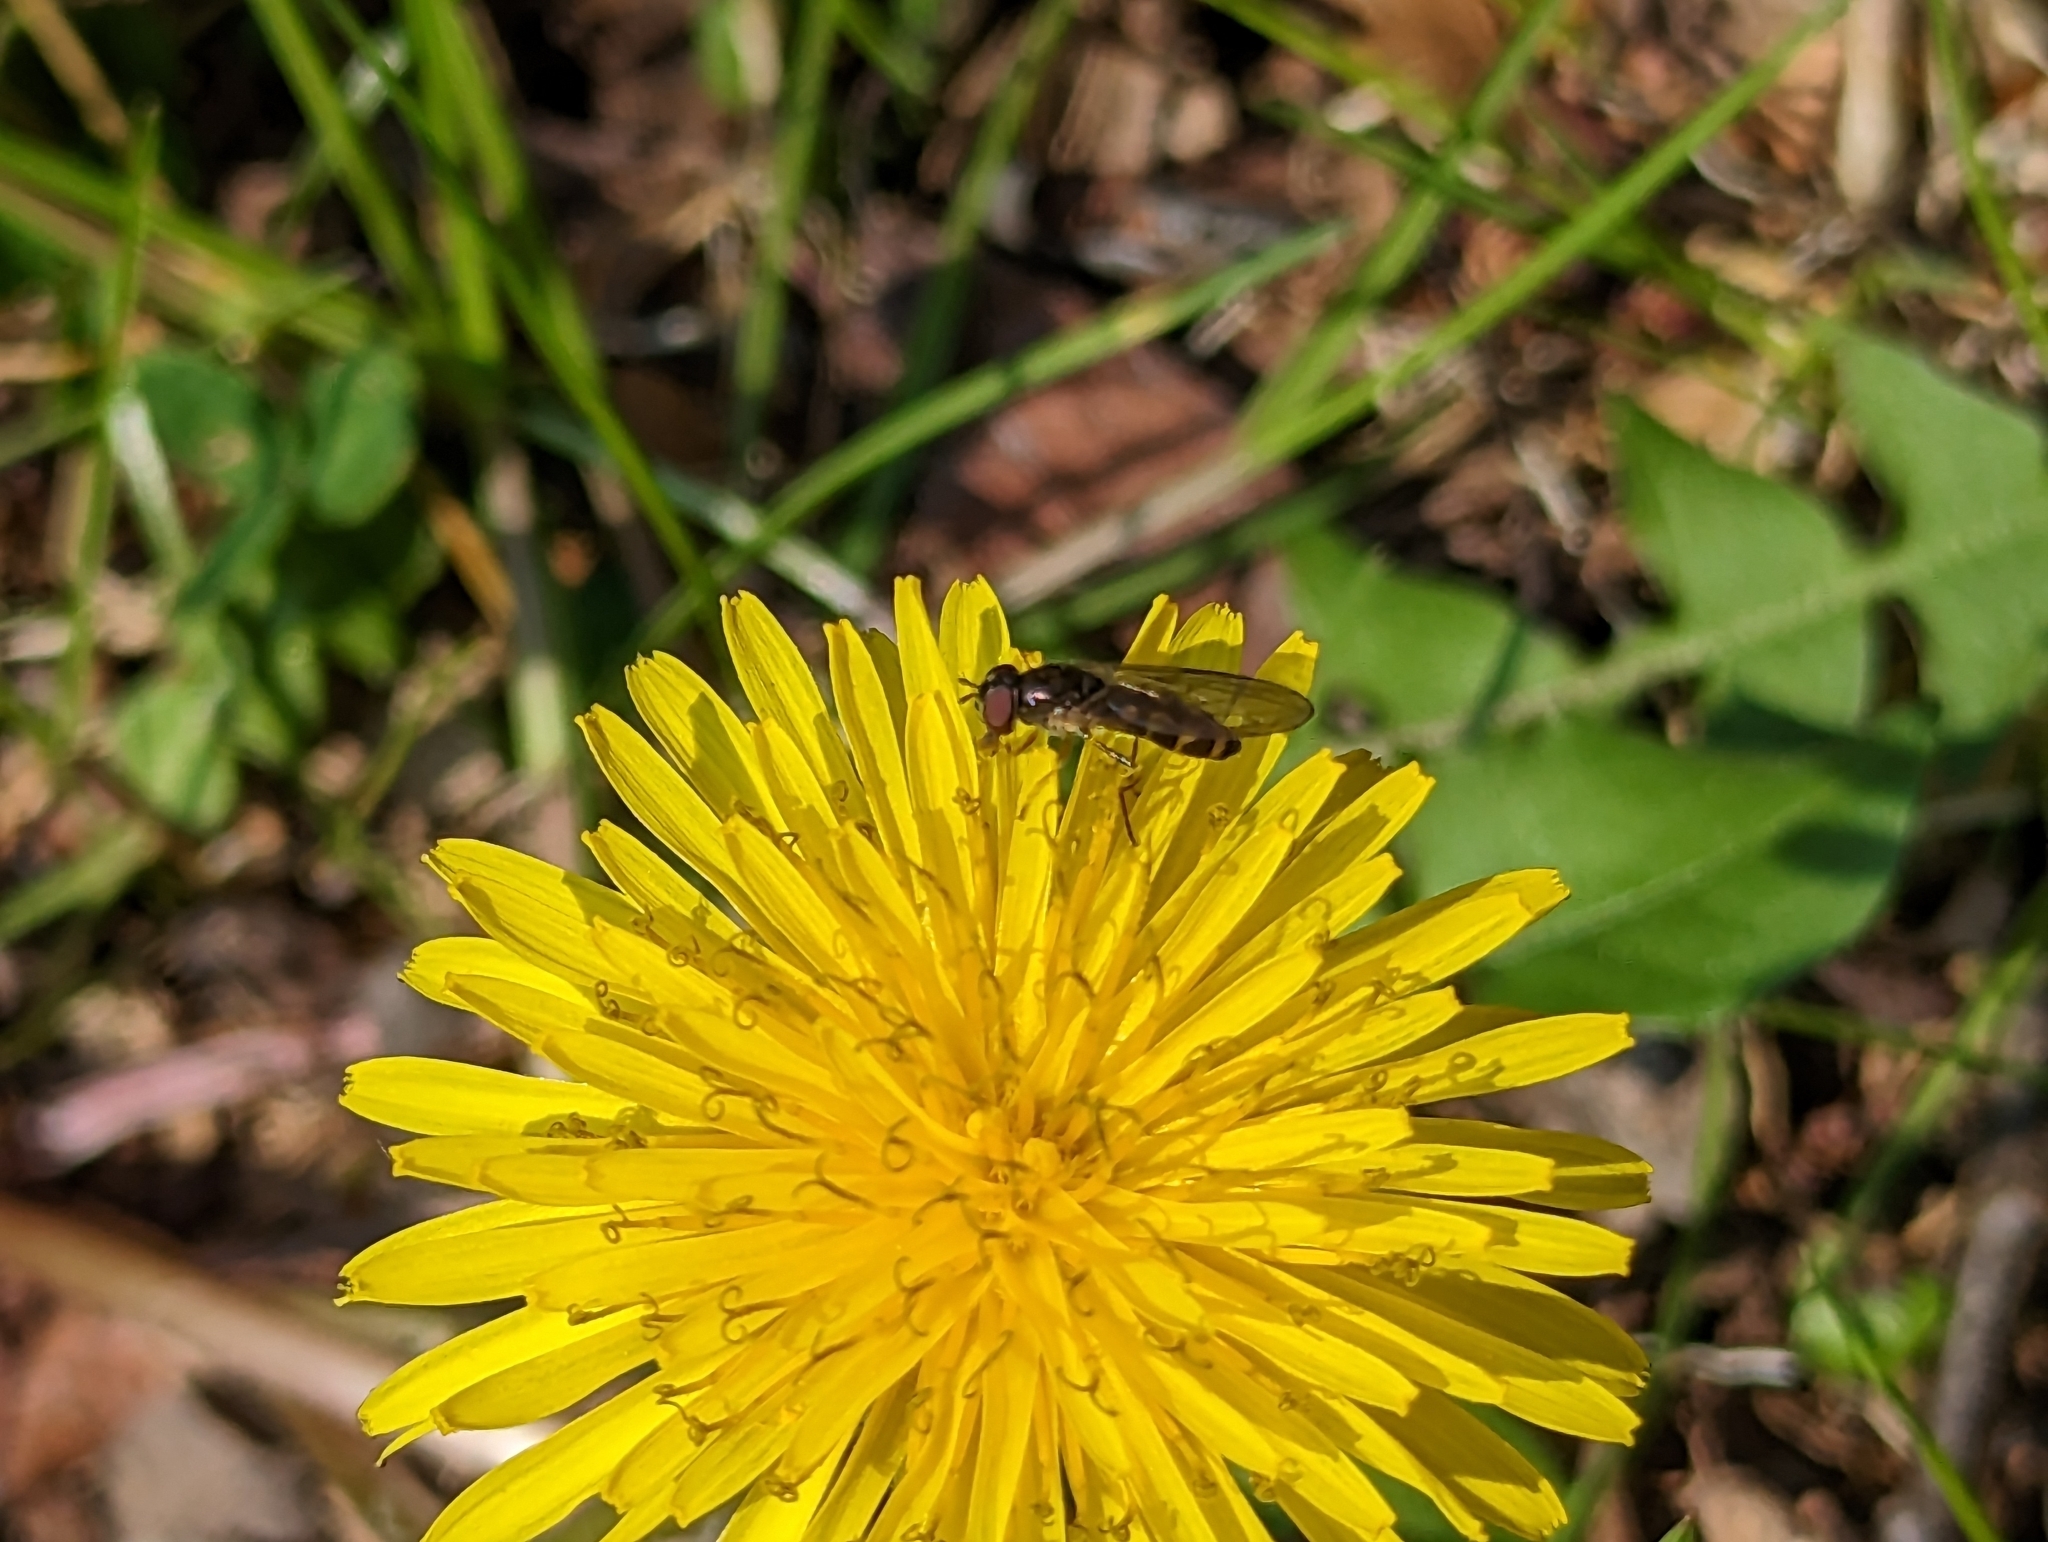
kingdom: Animalia
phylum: Arthropoda
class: Insecta
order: Diptera
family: Syrphidae
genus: Melanostoma
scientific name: Melanostoma mellina
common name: Hover fly
